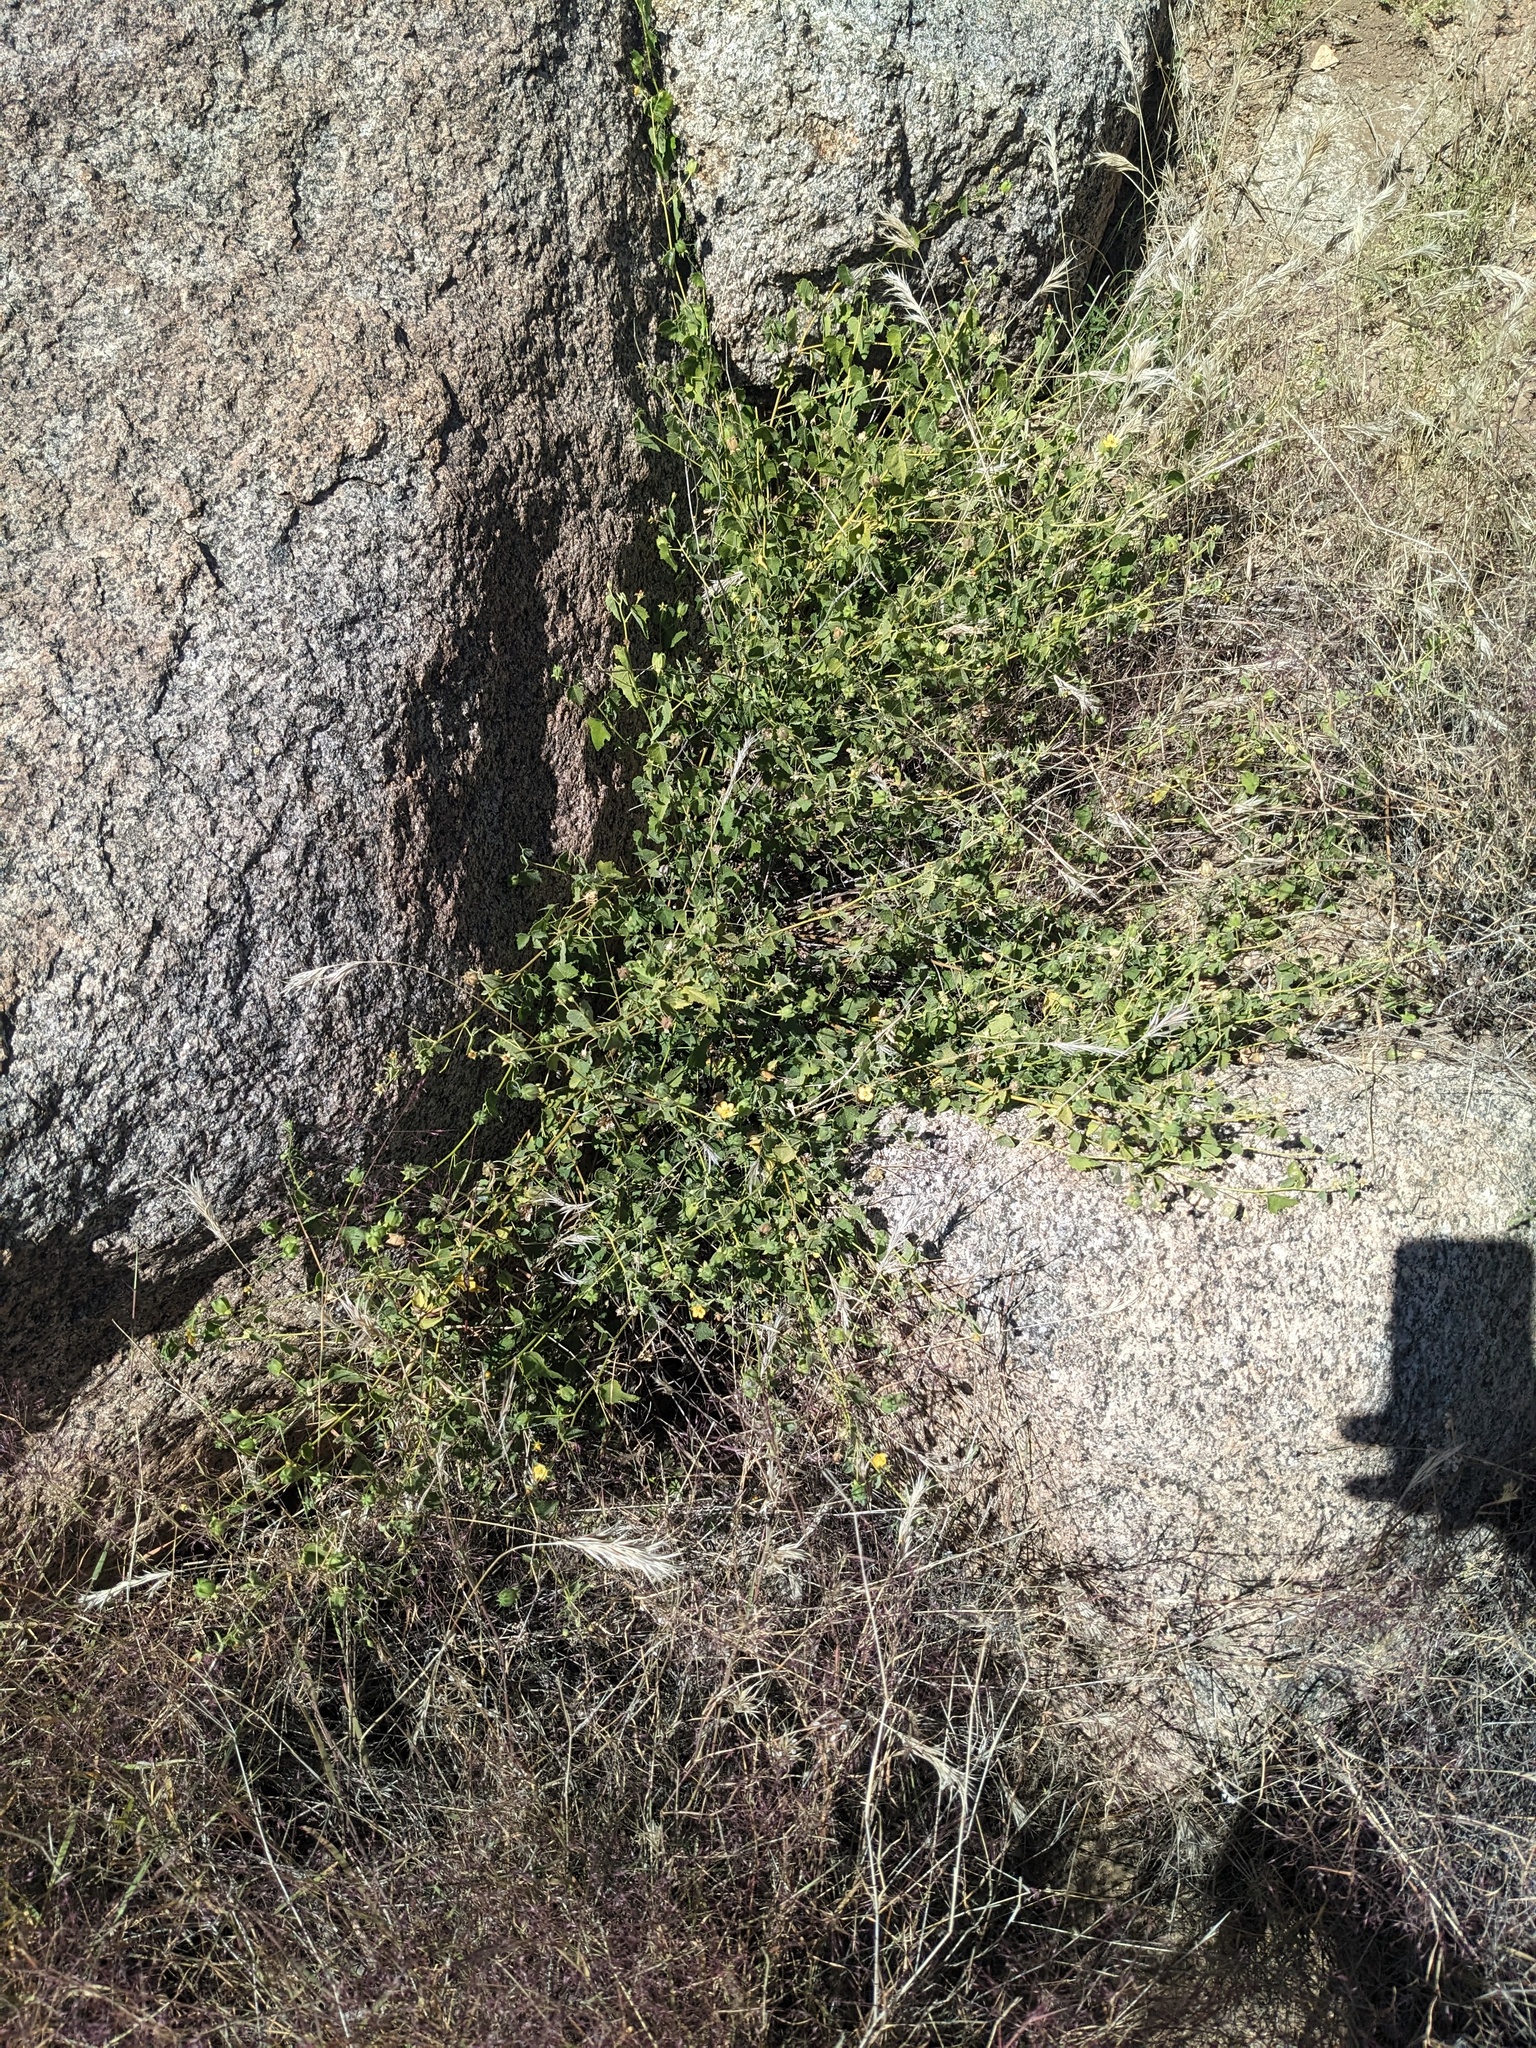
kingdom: Plantae
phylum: Tracheophyta
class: Magnoliopsida
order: Malvales
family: Malvaceae
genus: Abutilon
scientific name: Abutilon parvulum
